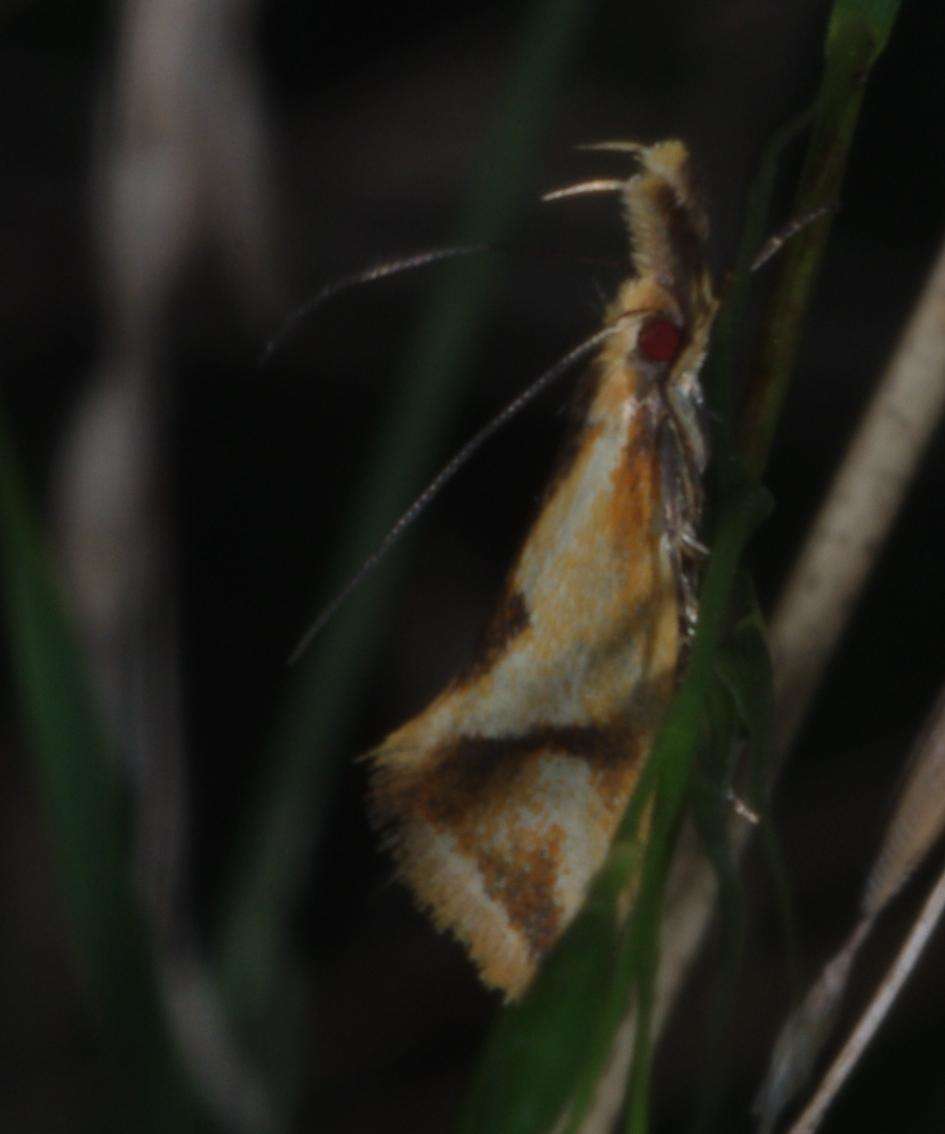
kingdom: Animalia
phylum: Arthropoda
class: Insecta
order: Lepidoptera
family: Oecophoridae
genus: Thema
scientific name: Thema chlorochyta
